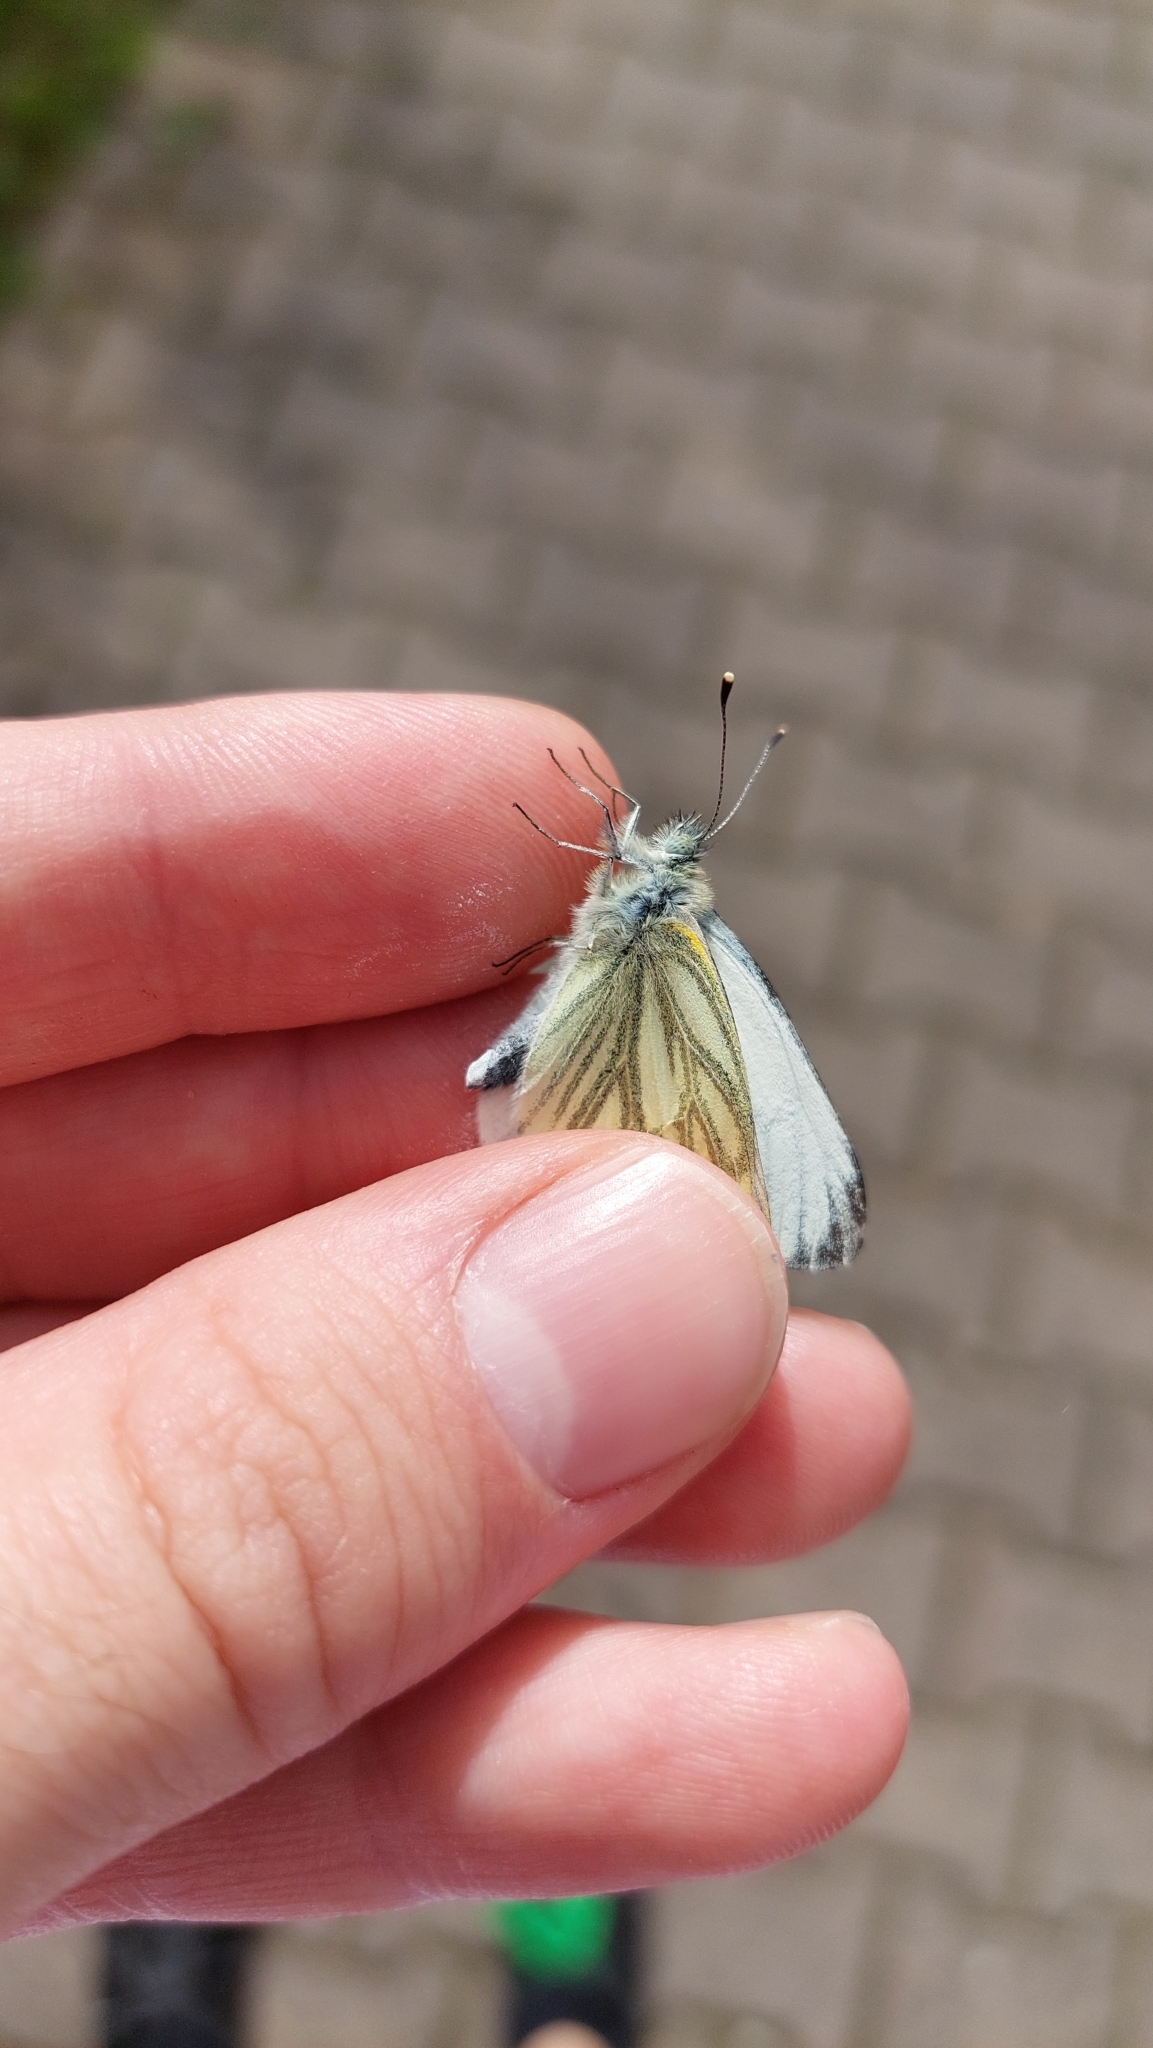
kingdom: Animalia
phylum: Arthropoda
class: Insecta
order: Lepidoptera
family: Pieridae
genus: Pieris
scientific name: Pieris napi
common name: Green-veined white
